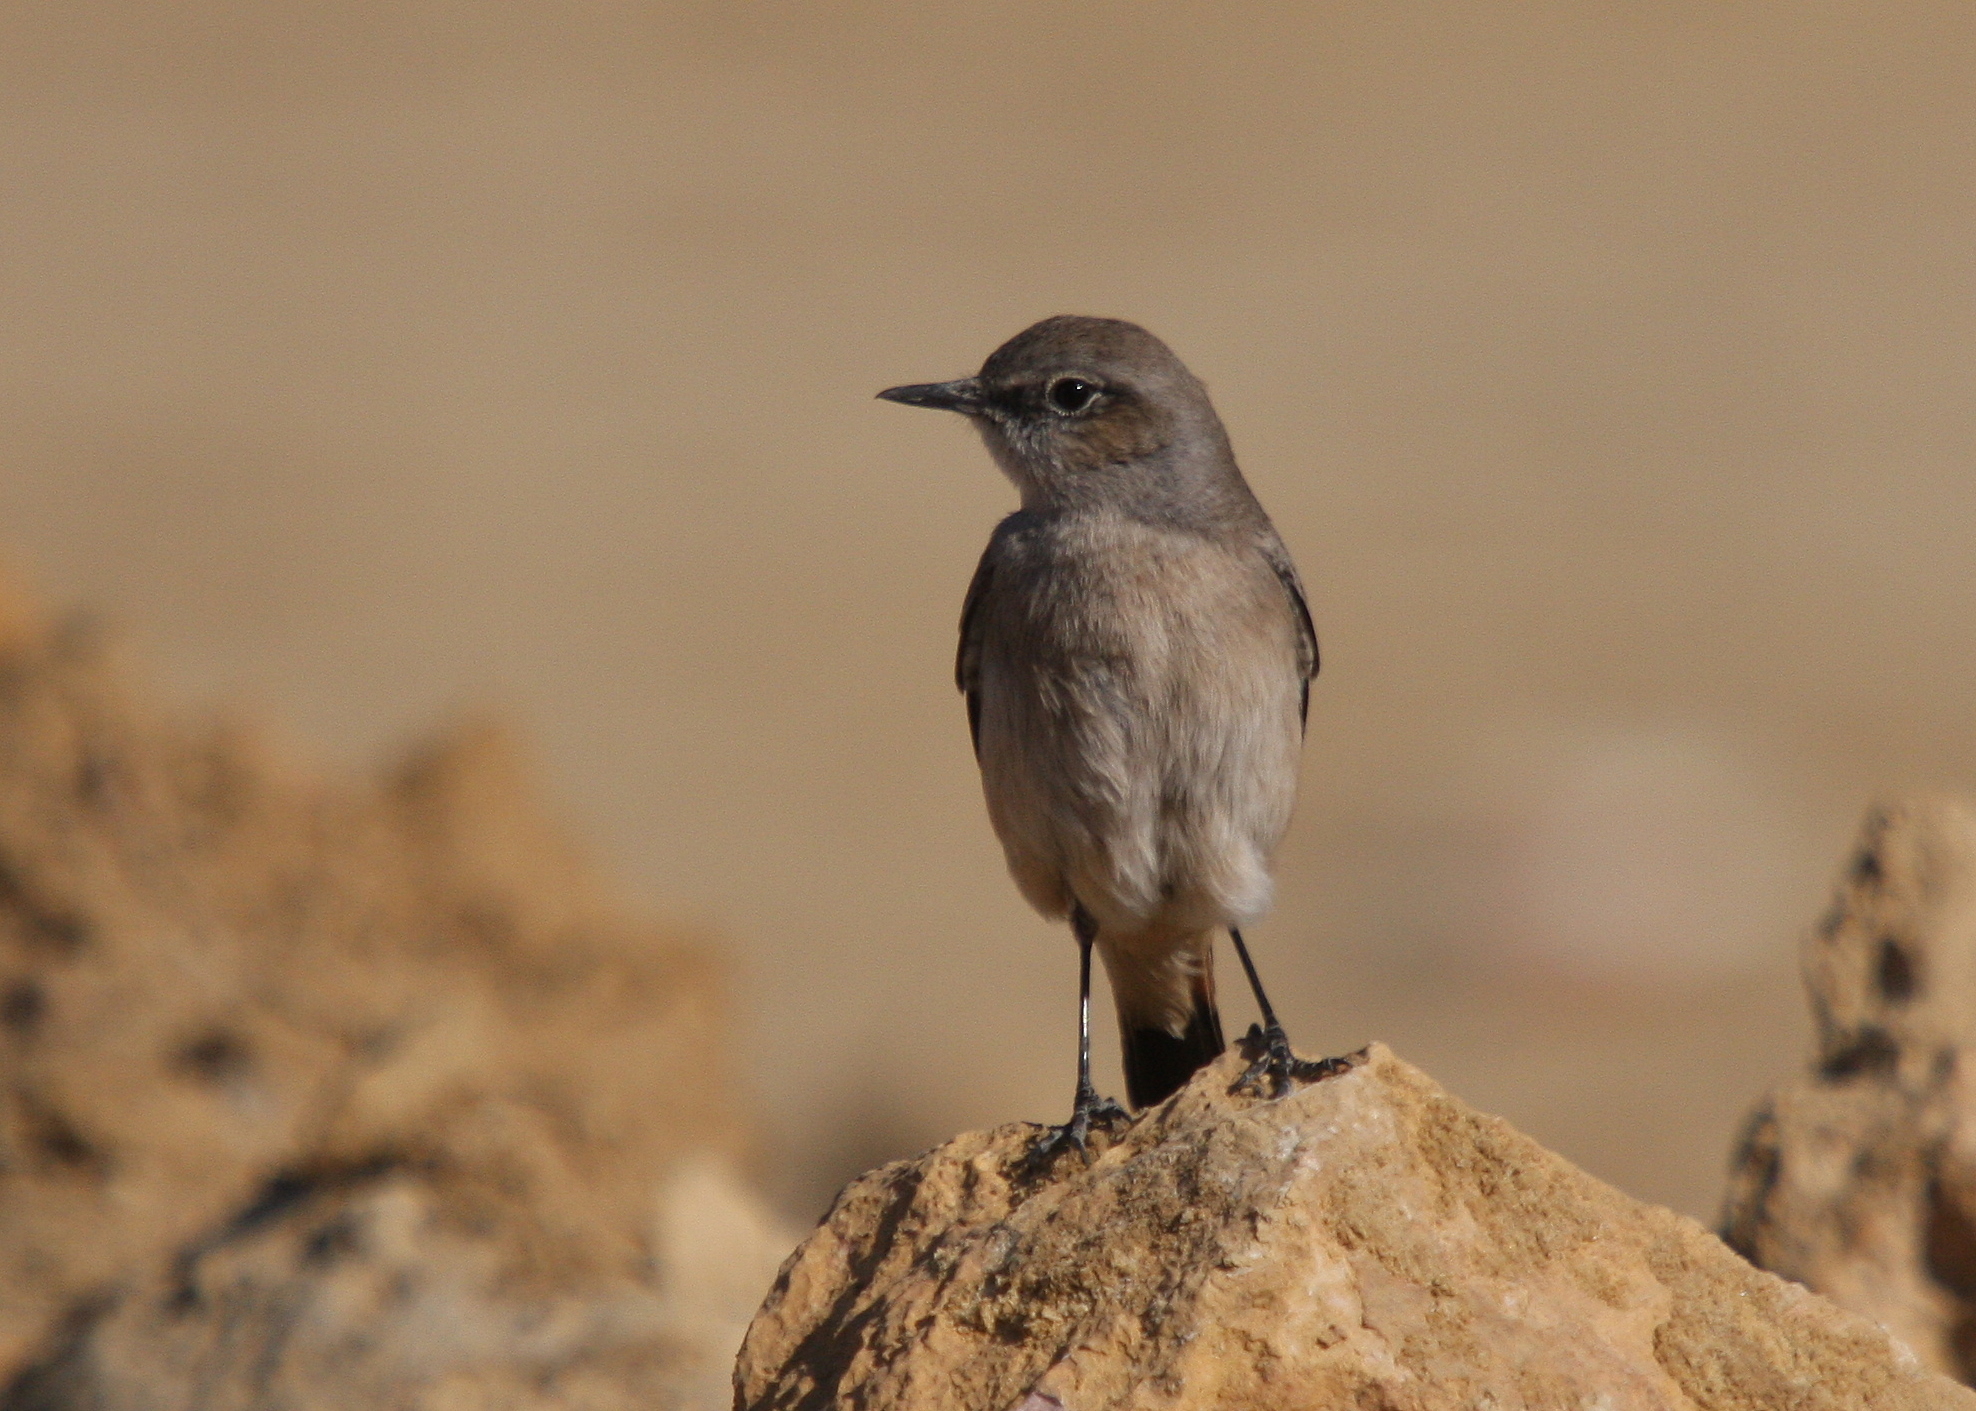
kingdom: Animalia
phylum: Chordata
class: Aves
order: Passeriformes
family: Muscicapidae
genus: Oenanthe
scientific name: Oenanthe chrysopygia
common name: Red-tailed wheatear
